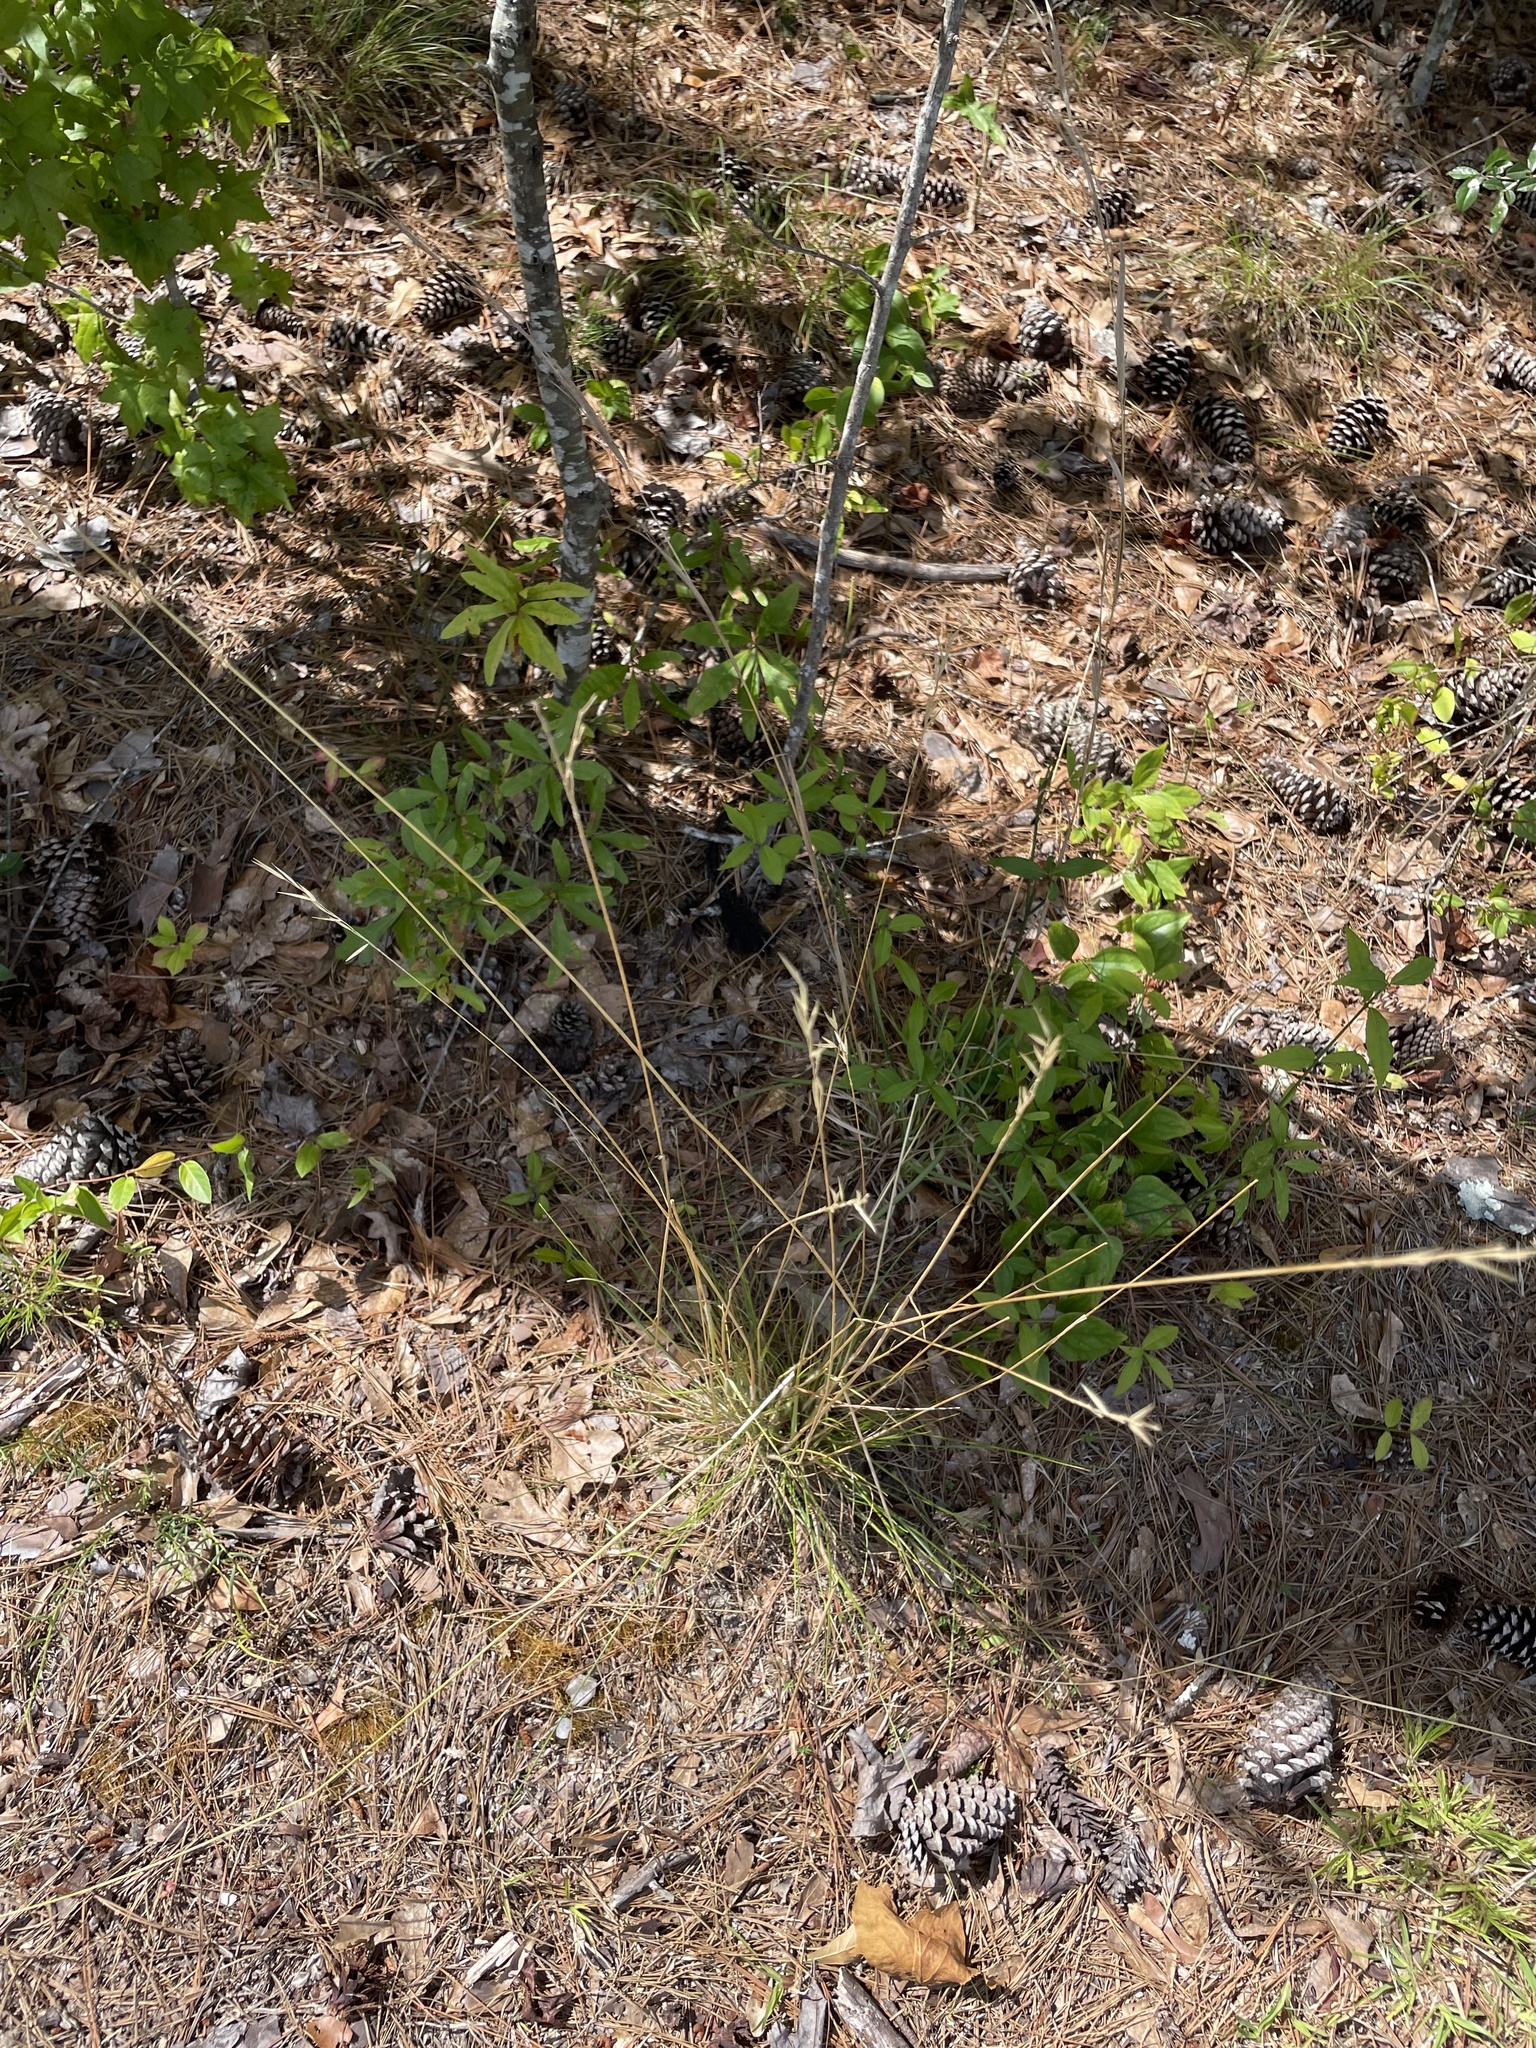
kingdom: Plantae
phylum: Tracheophyta
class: Liliopsida
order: Poales
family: Poaceae
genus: Danthonia
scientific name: Danthonia spicata
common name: Common wild oatgrass
